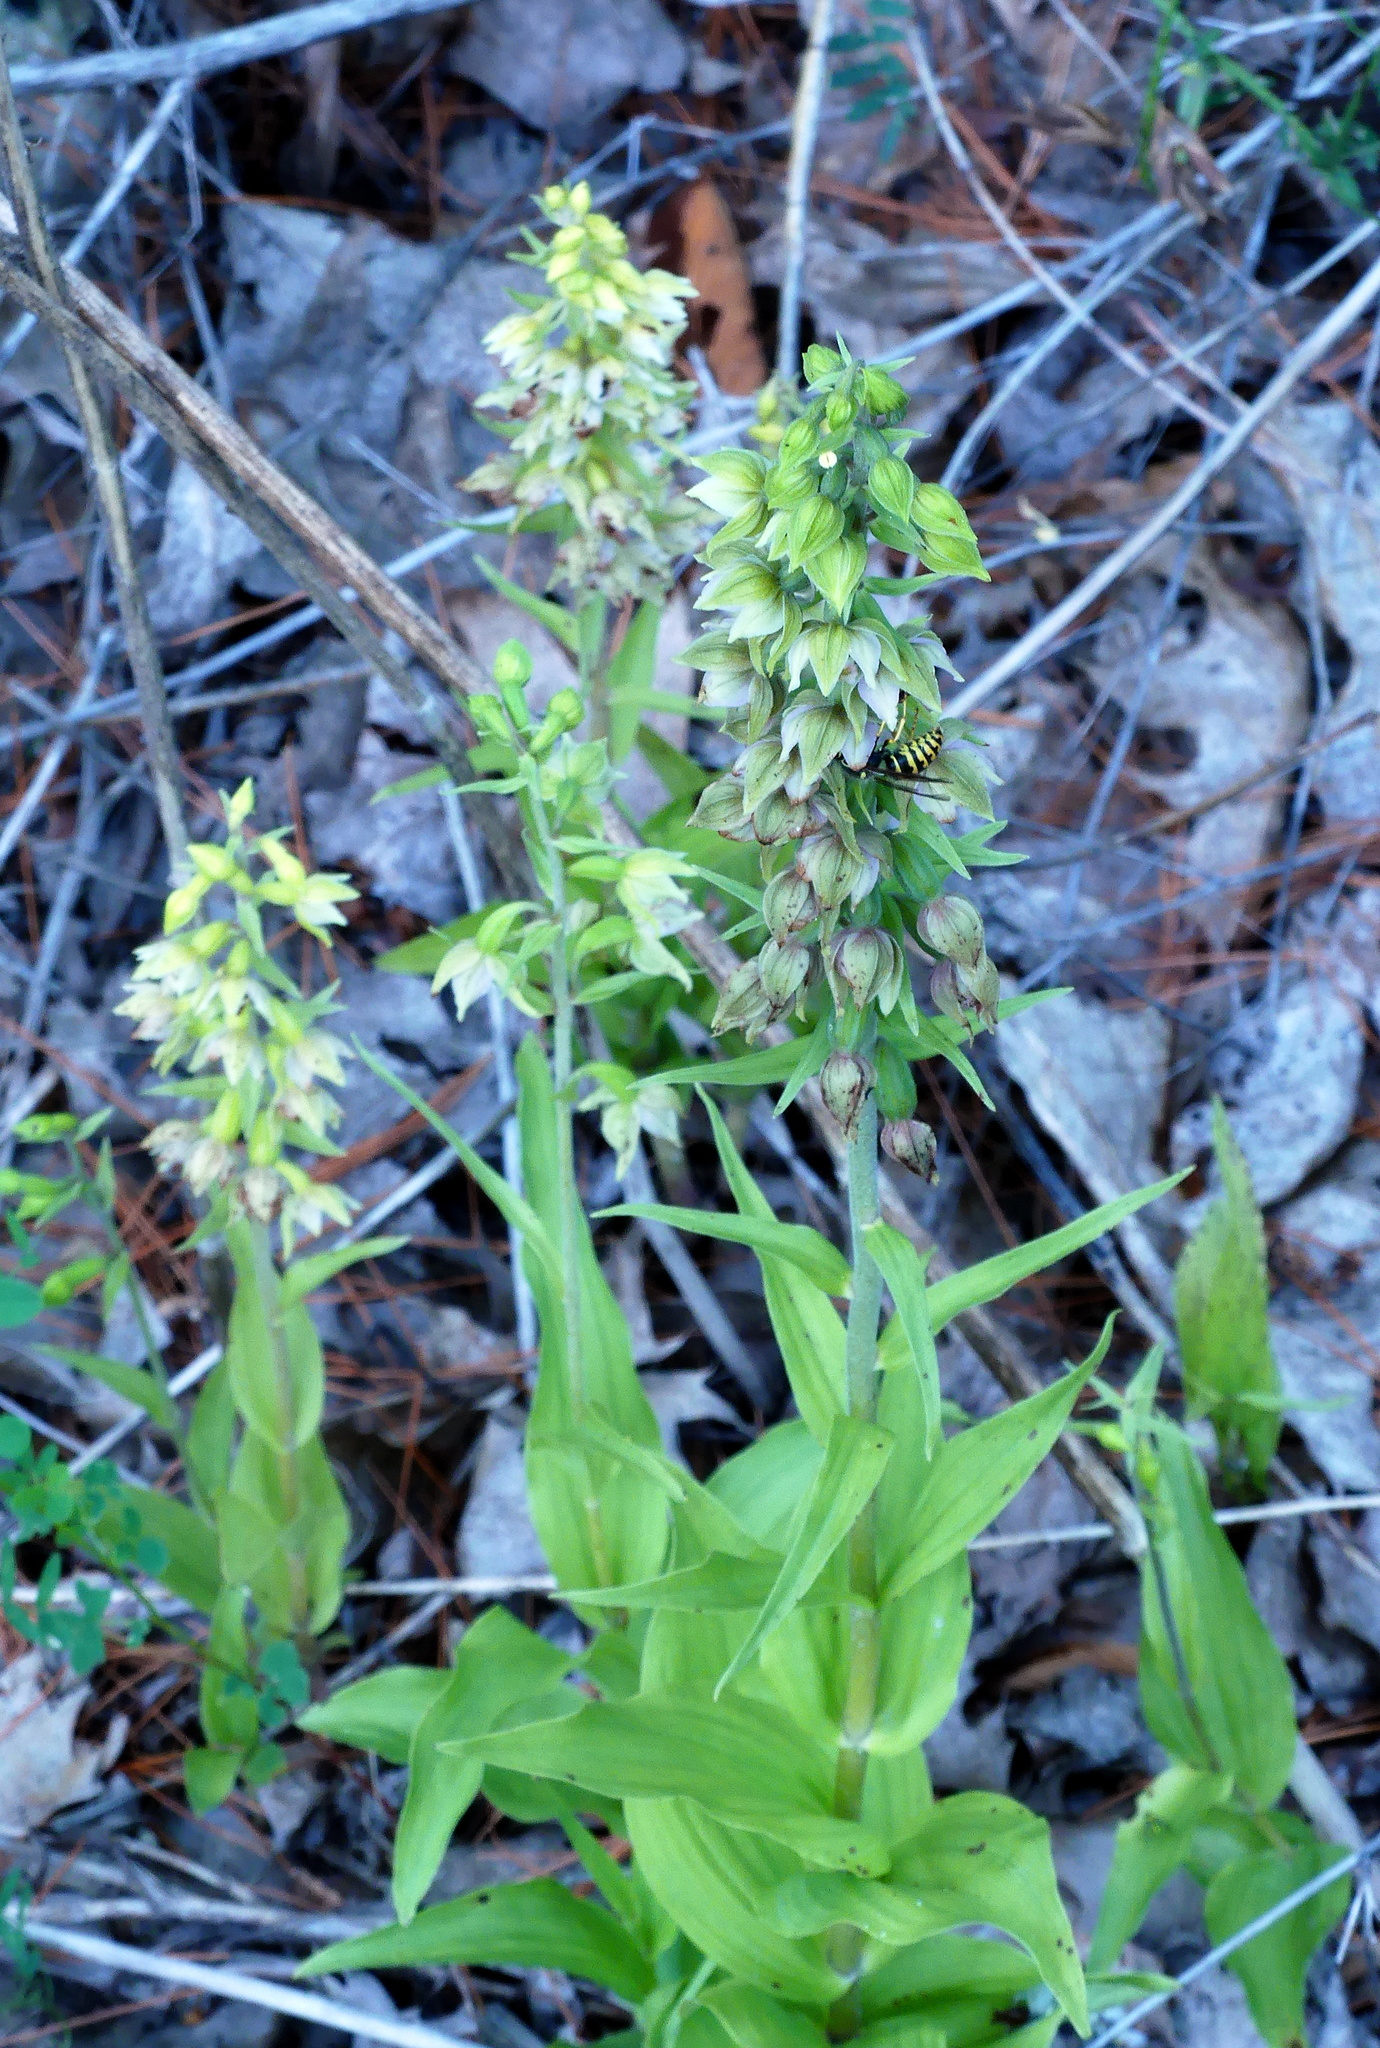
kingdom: Plantae
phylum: Tracheophyta
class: Liliopsida
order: Asparagales
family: Orchidaceae
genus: Epipactis
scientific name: Epipactis helleborine
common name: Broad-leaved helleborine
